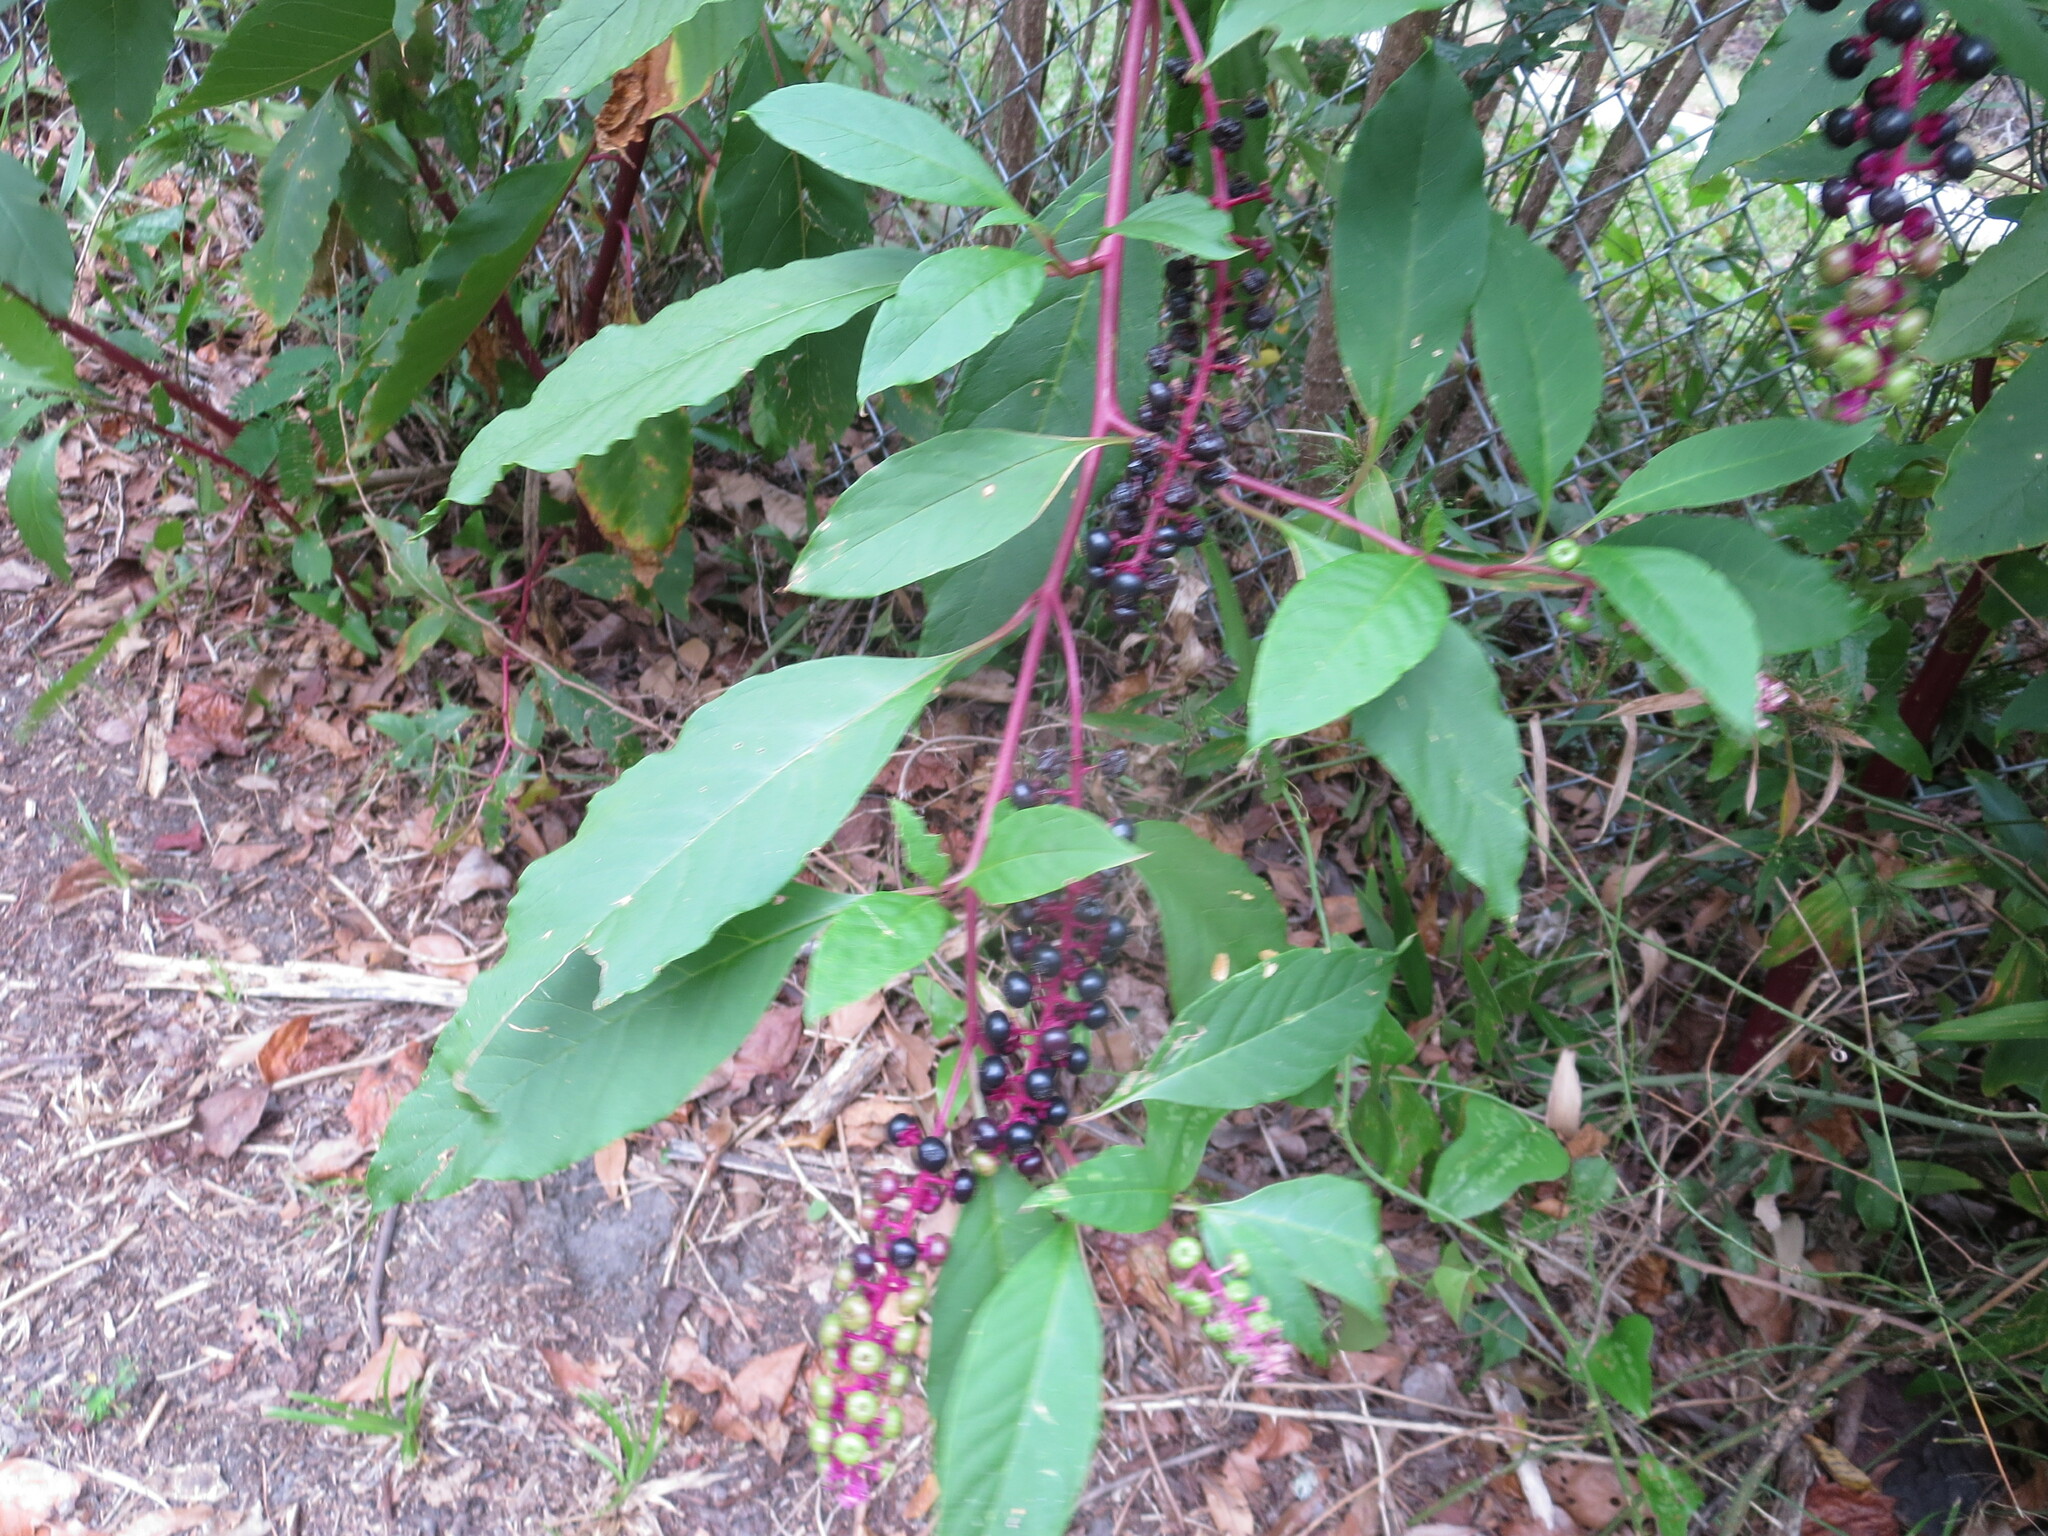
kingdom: Plantae
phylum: Tracheophyta
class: Magnoliopsida
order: Caryophyllales
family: Phytolaccaceae
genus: Phytolacca
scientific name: Phytolacca americana
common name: American pokeweed
